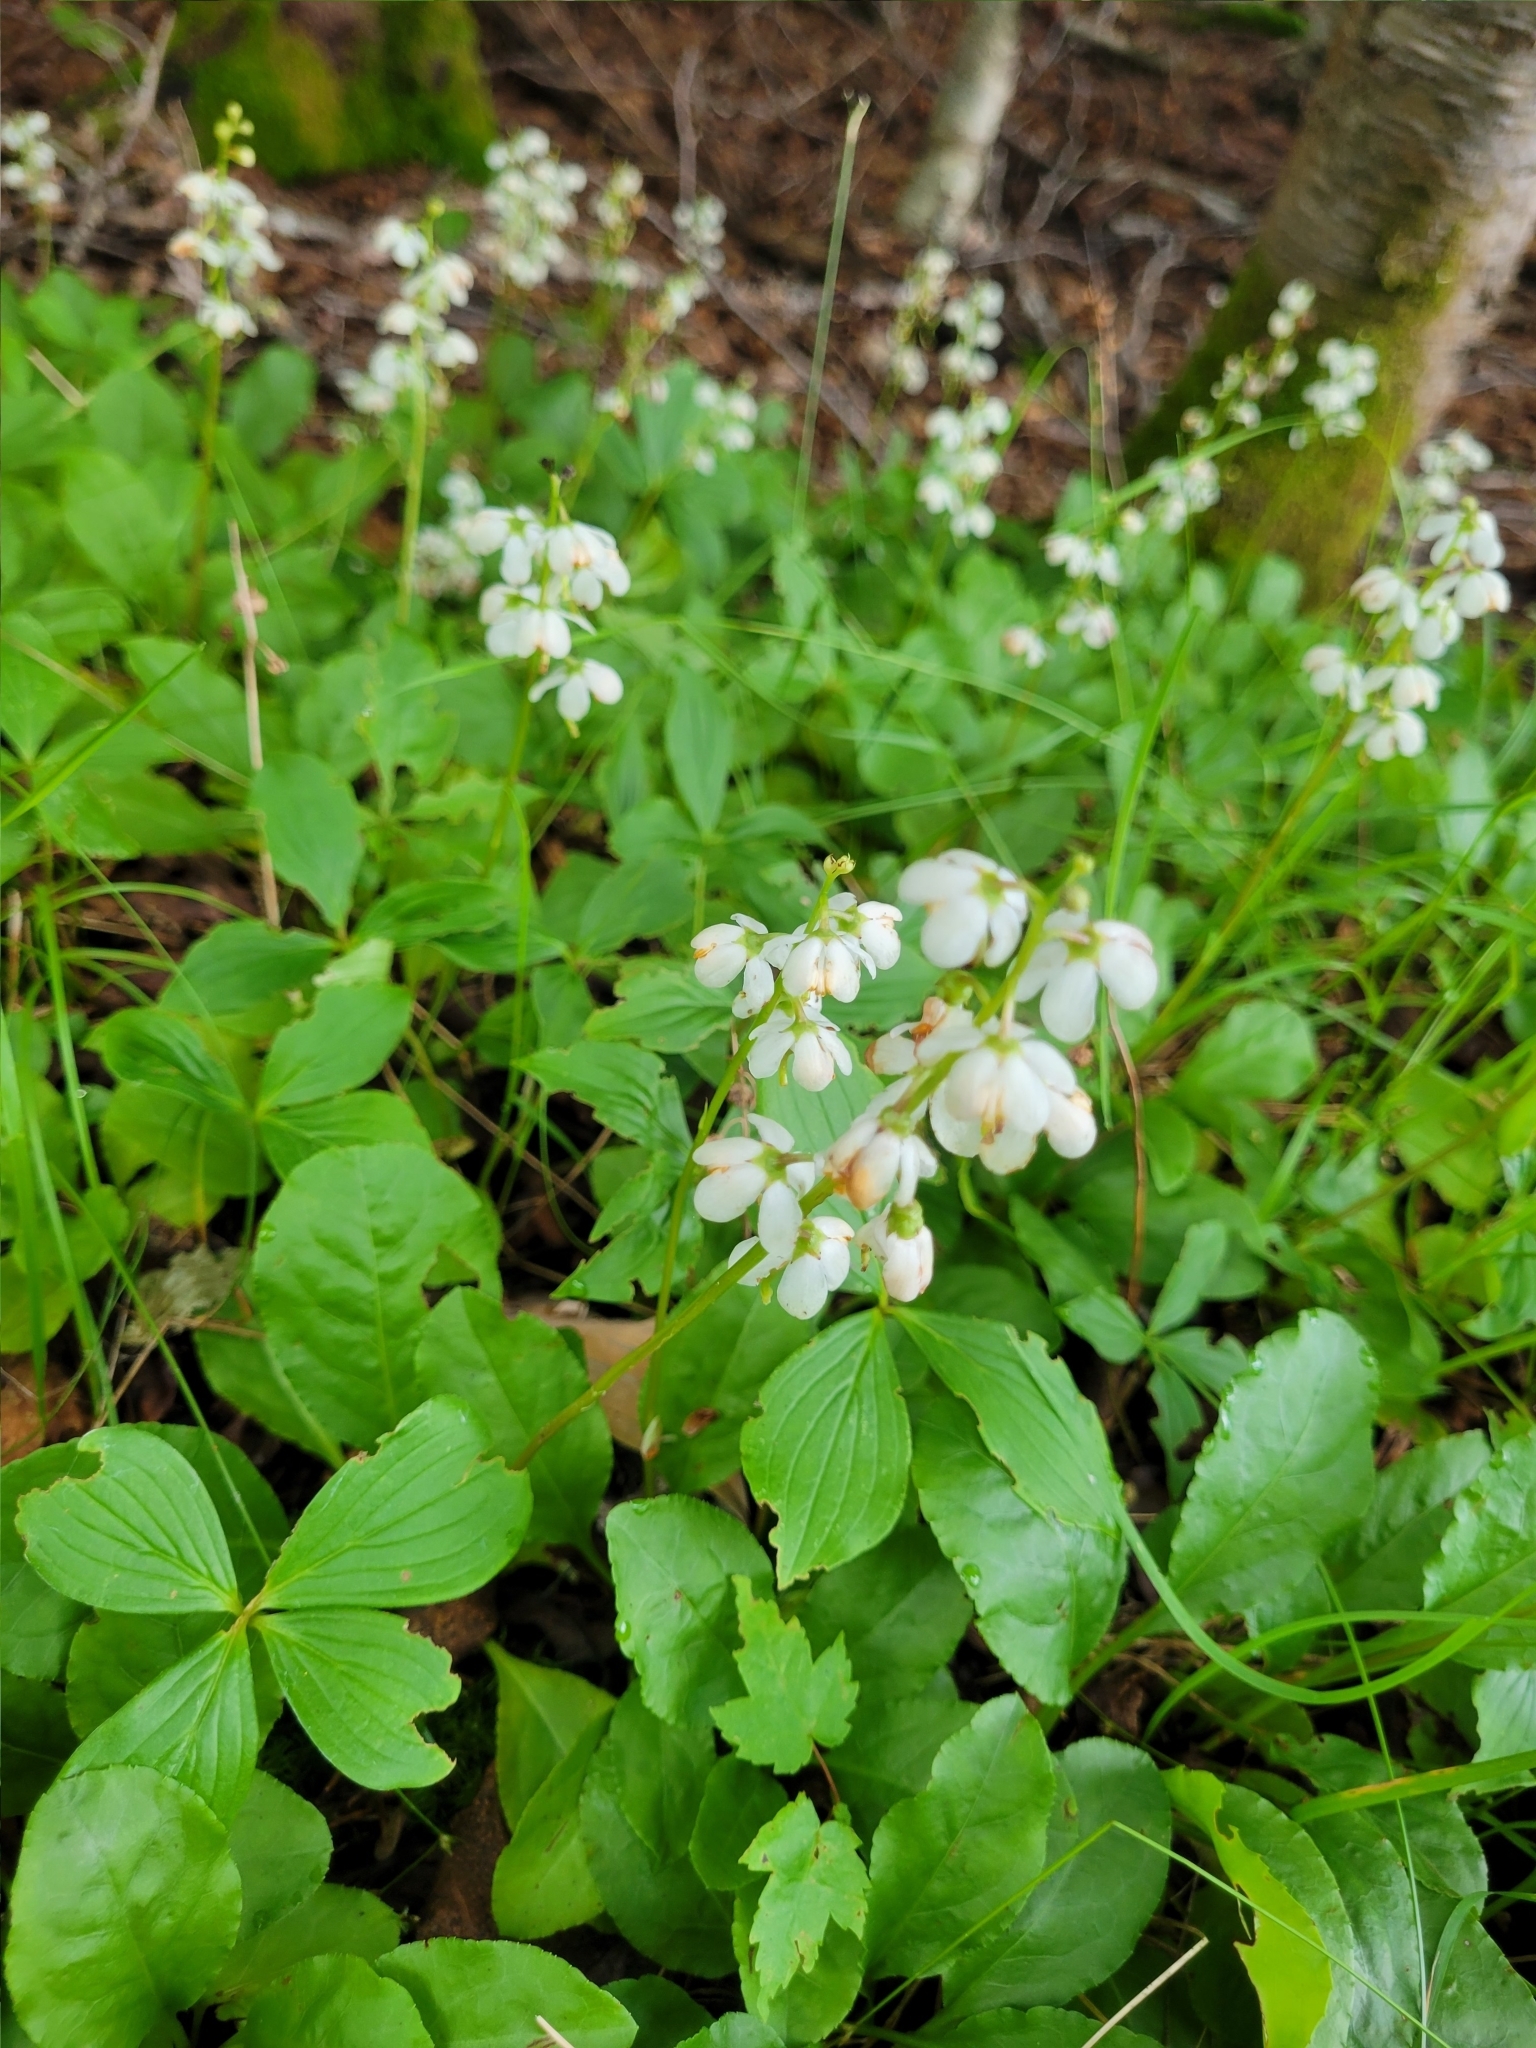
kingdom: Plantae
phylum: Tracheophyta
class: Magnoliopsida
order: Ericales
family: Ericaceae
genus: Pyrola
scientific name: Pyrola elliptica
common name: Shinleaf
